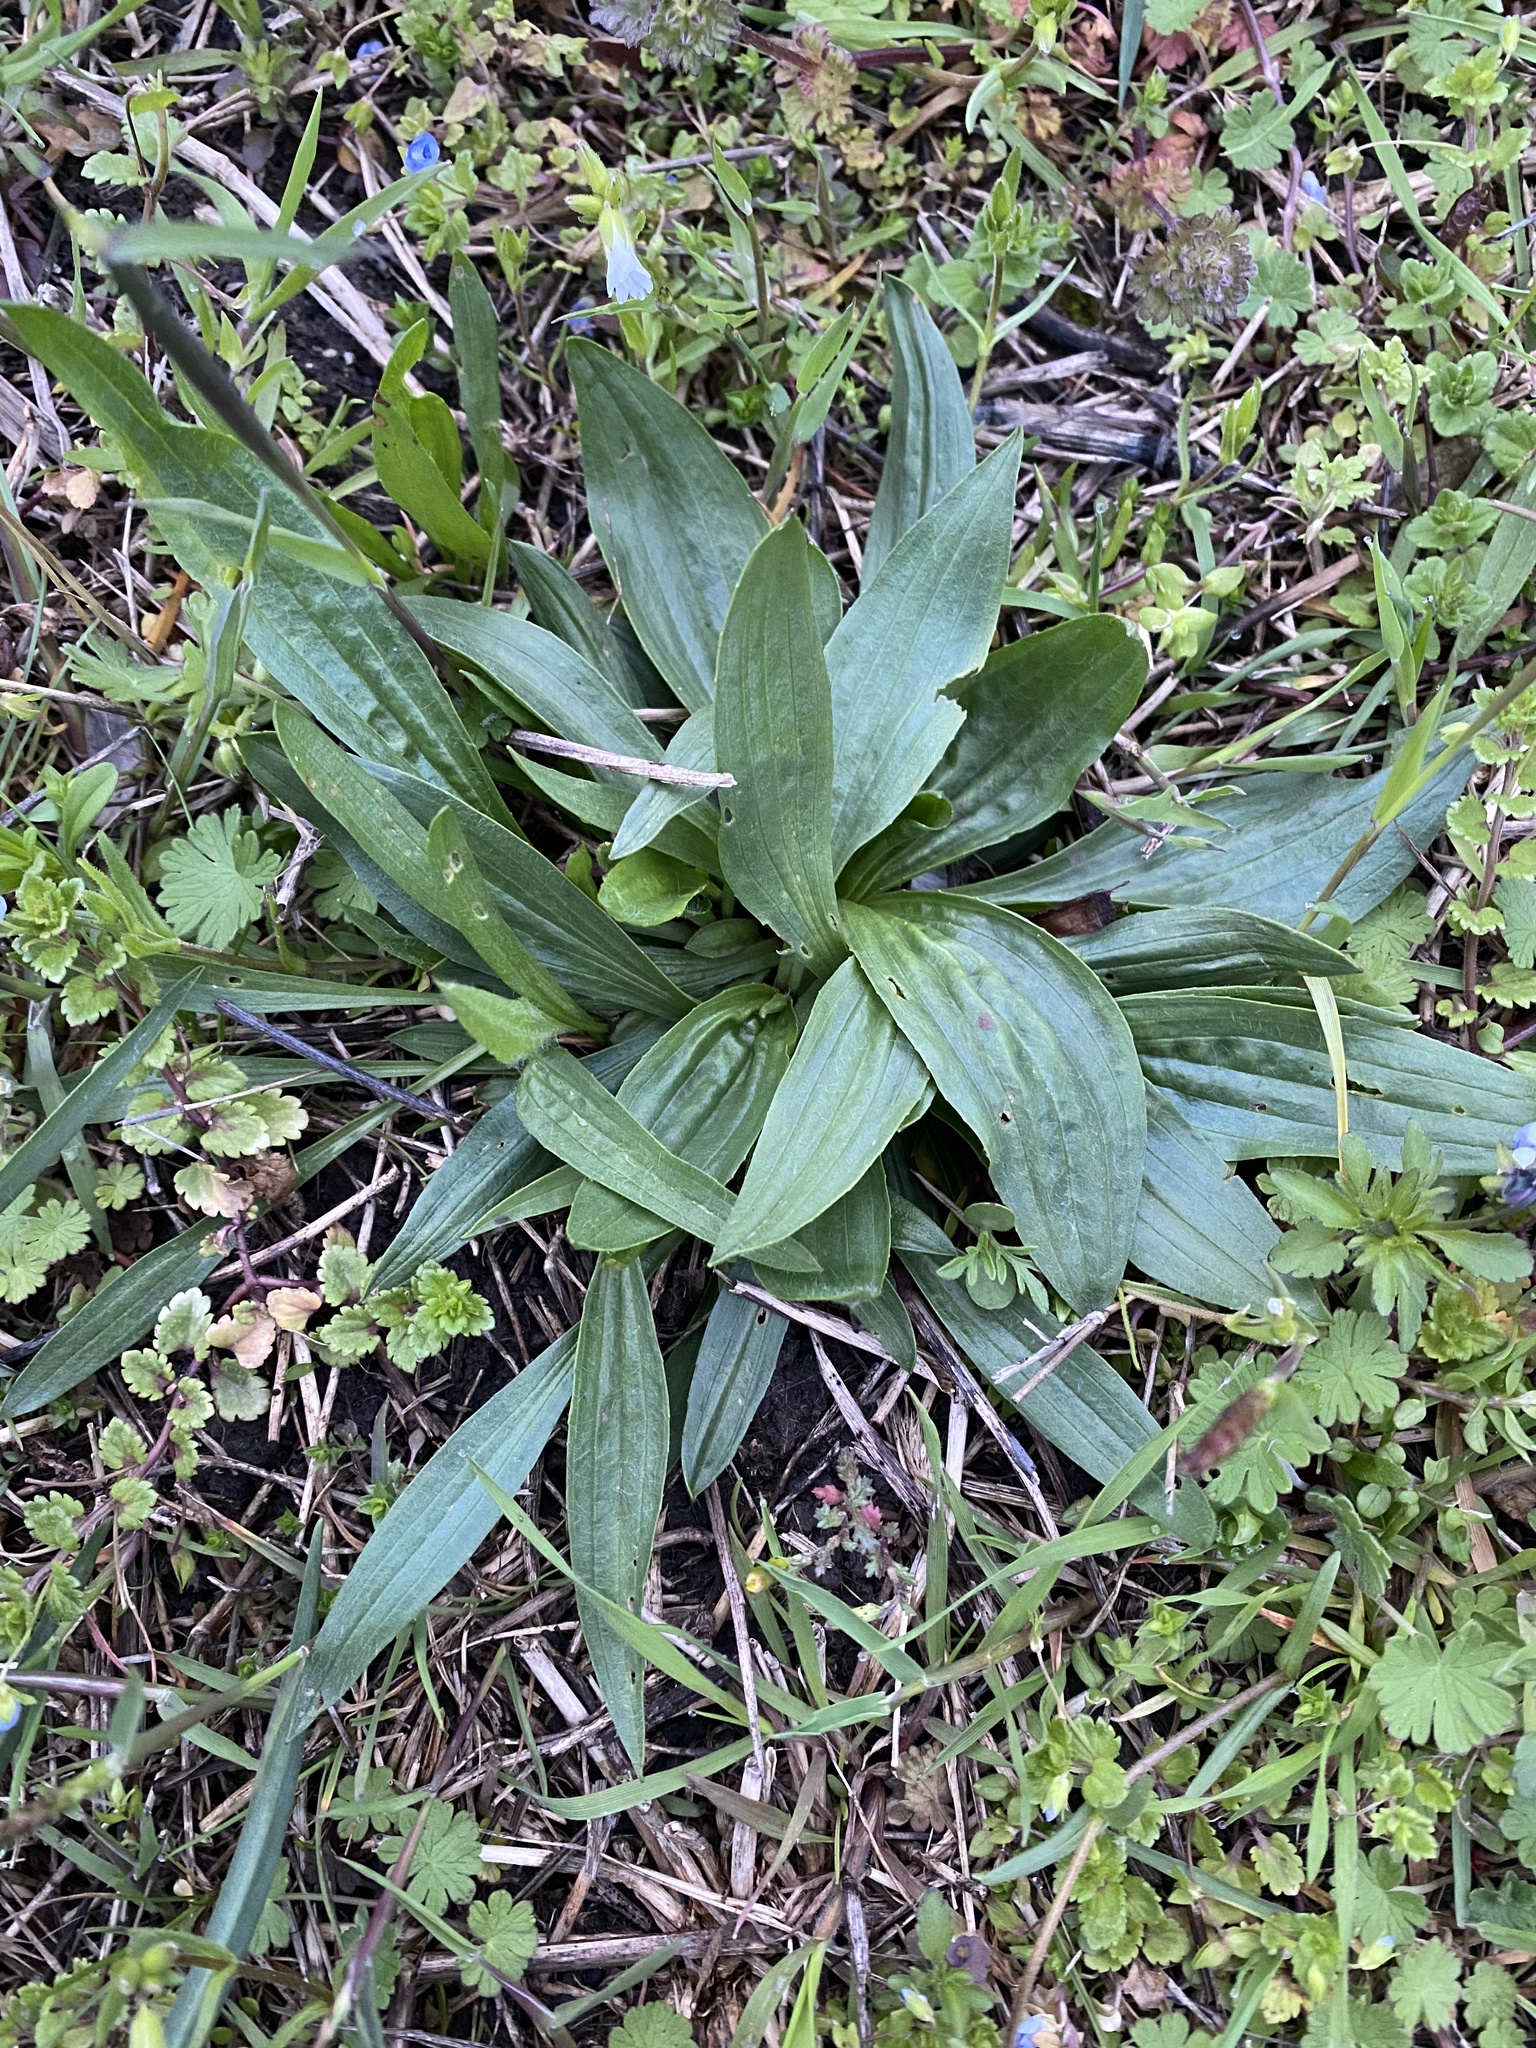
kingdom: Plantae
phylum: Tracheophyta
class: Magnoliopsida
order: Lamiales
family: Plantaginaceae
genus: Plantago
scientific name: Plantago lanceolata
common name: Ribwort plantain
